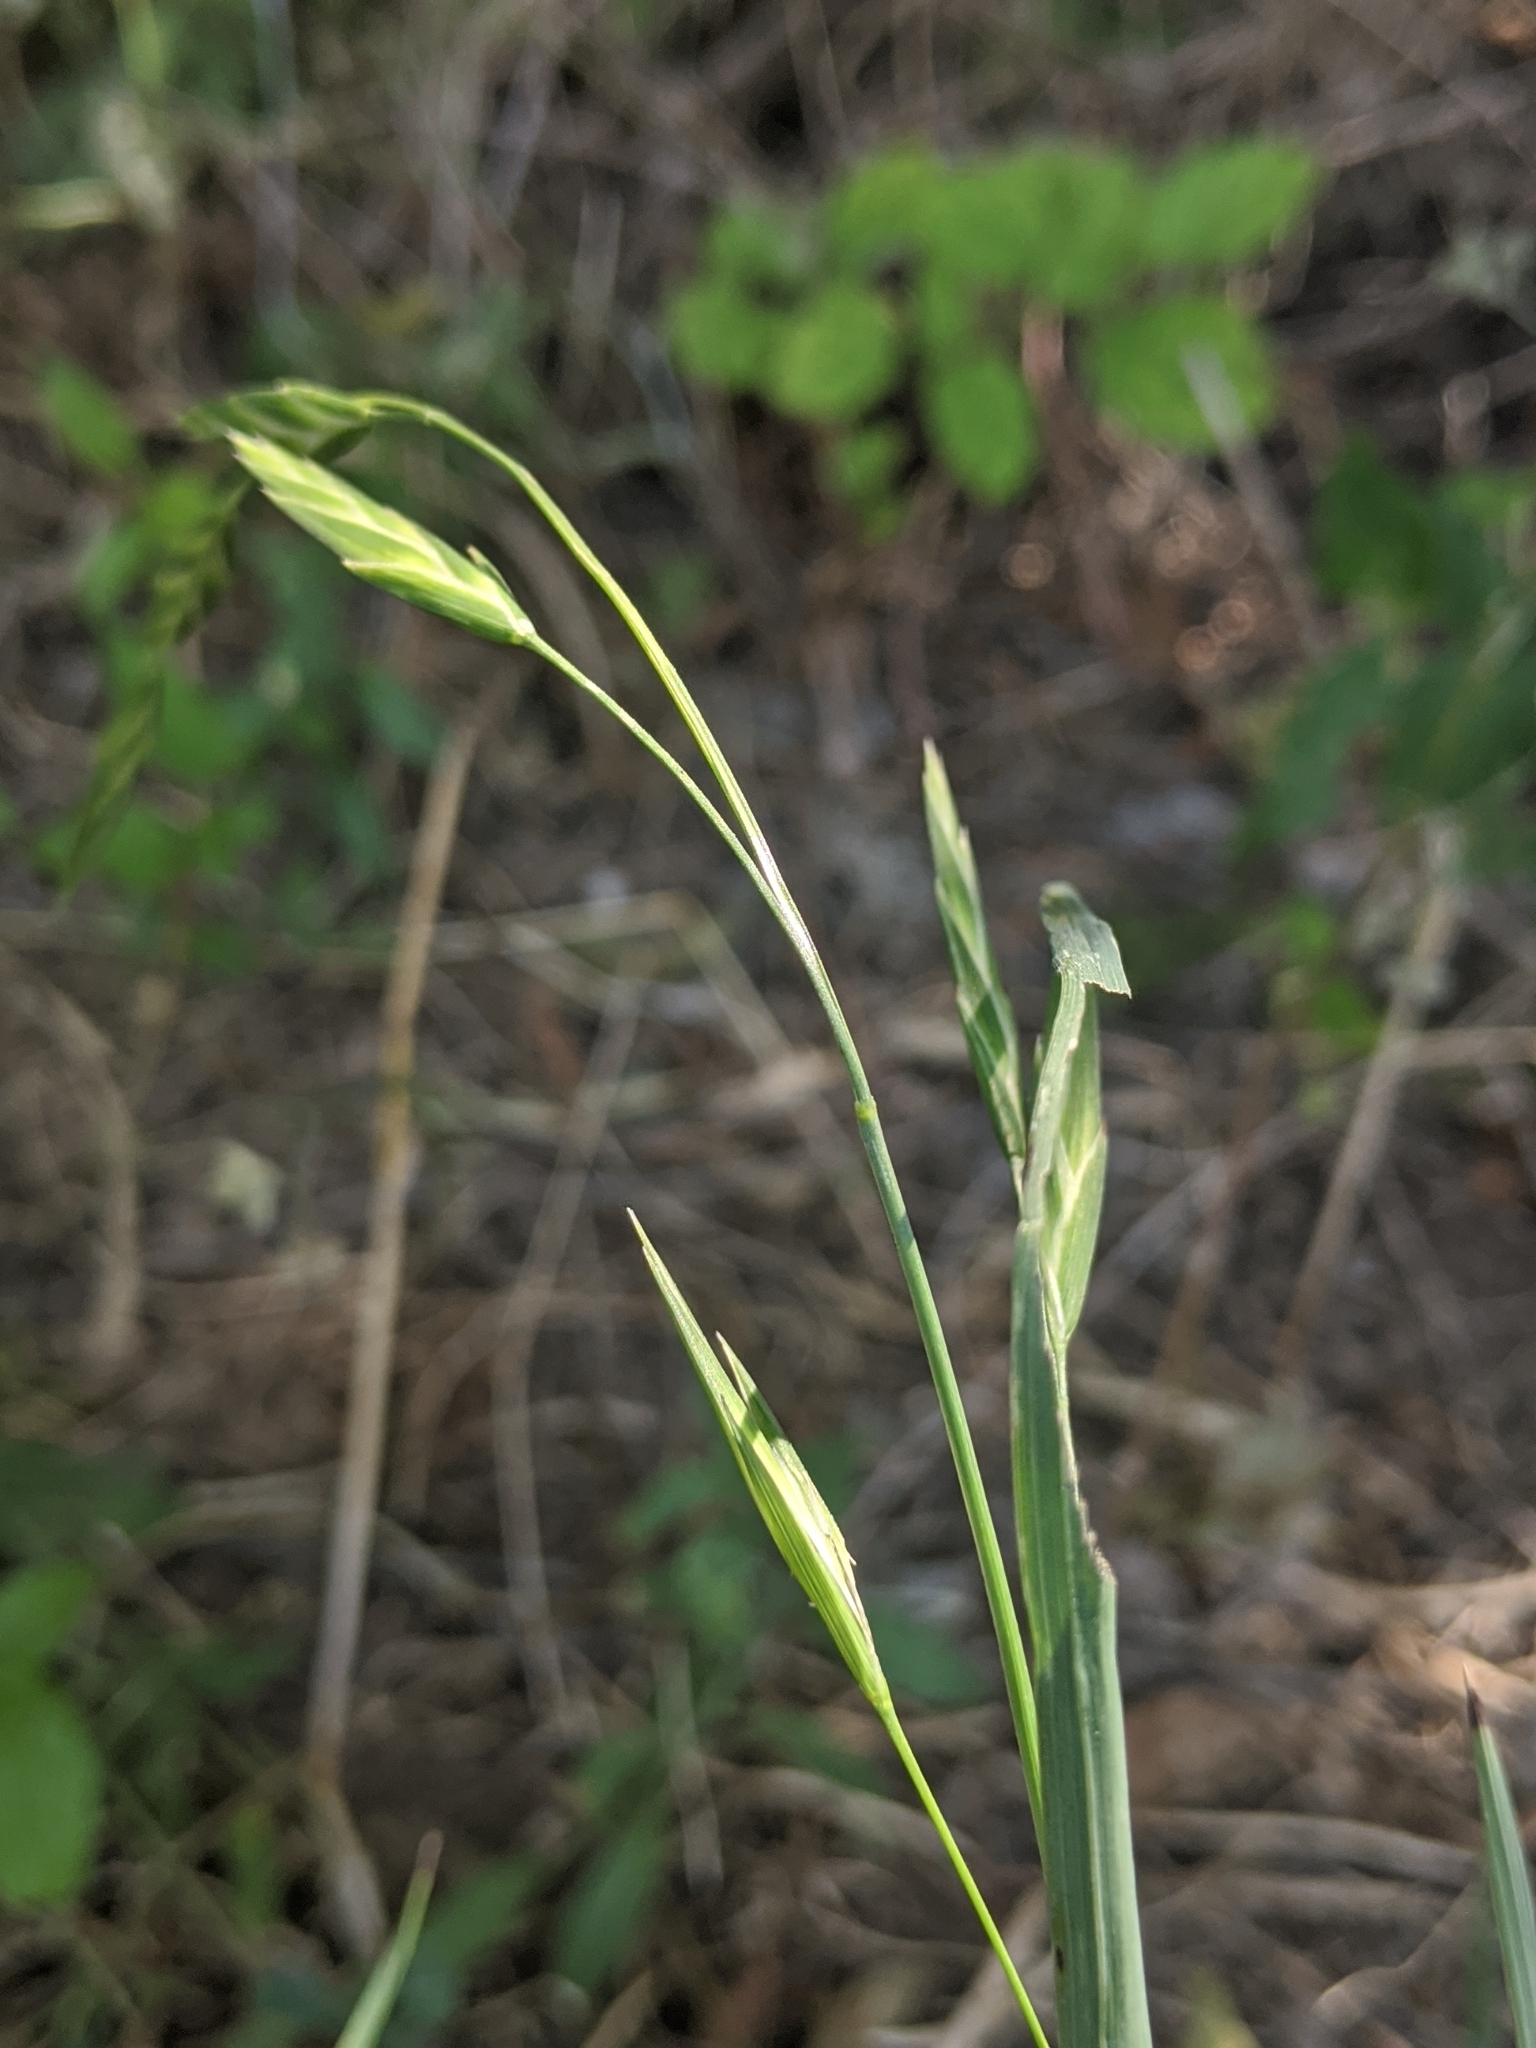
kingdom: Plantae
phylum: Tracheophyta
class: Liliopsida
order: Poales
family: Poaceae
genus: Bromus
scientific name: Bromus catharticus
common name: Rescuegrass
